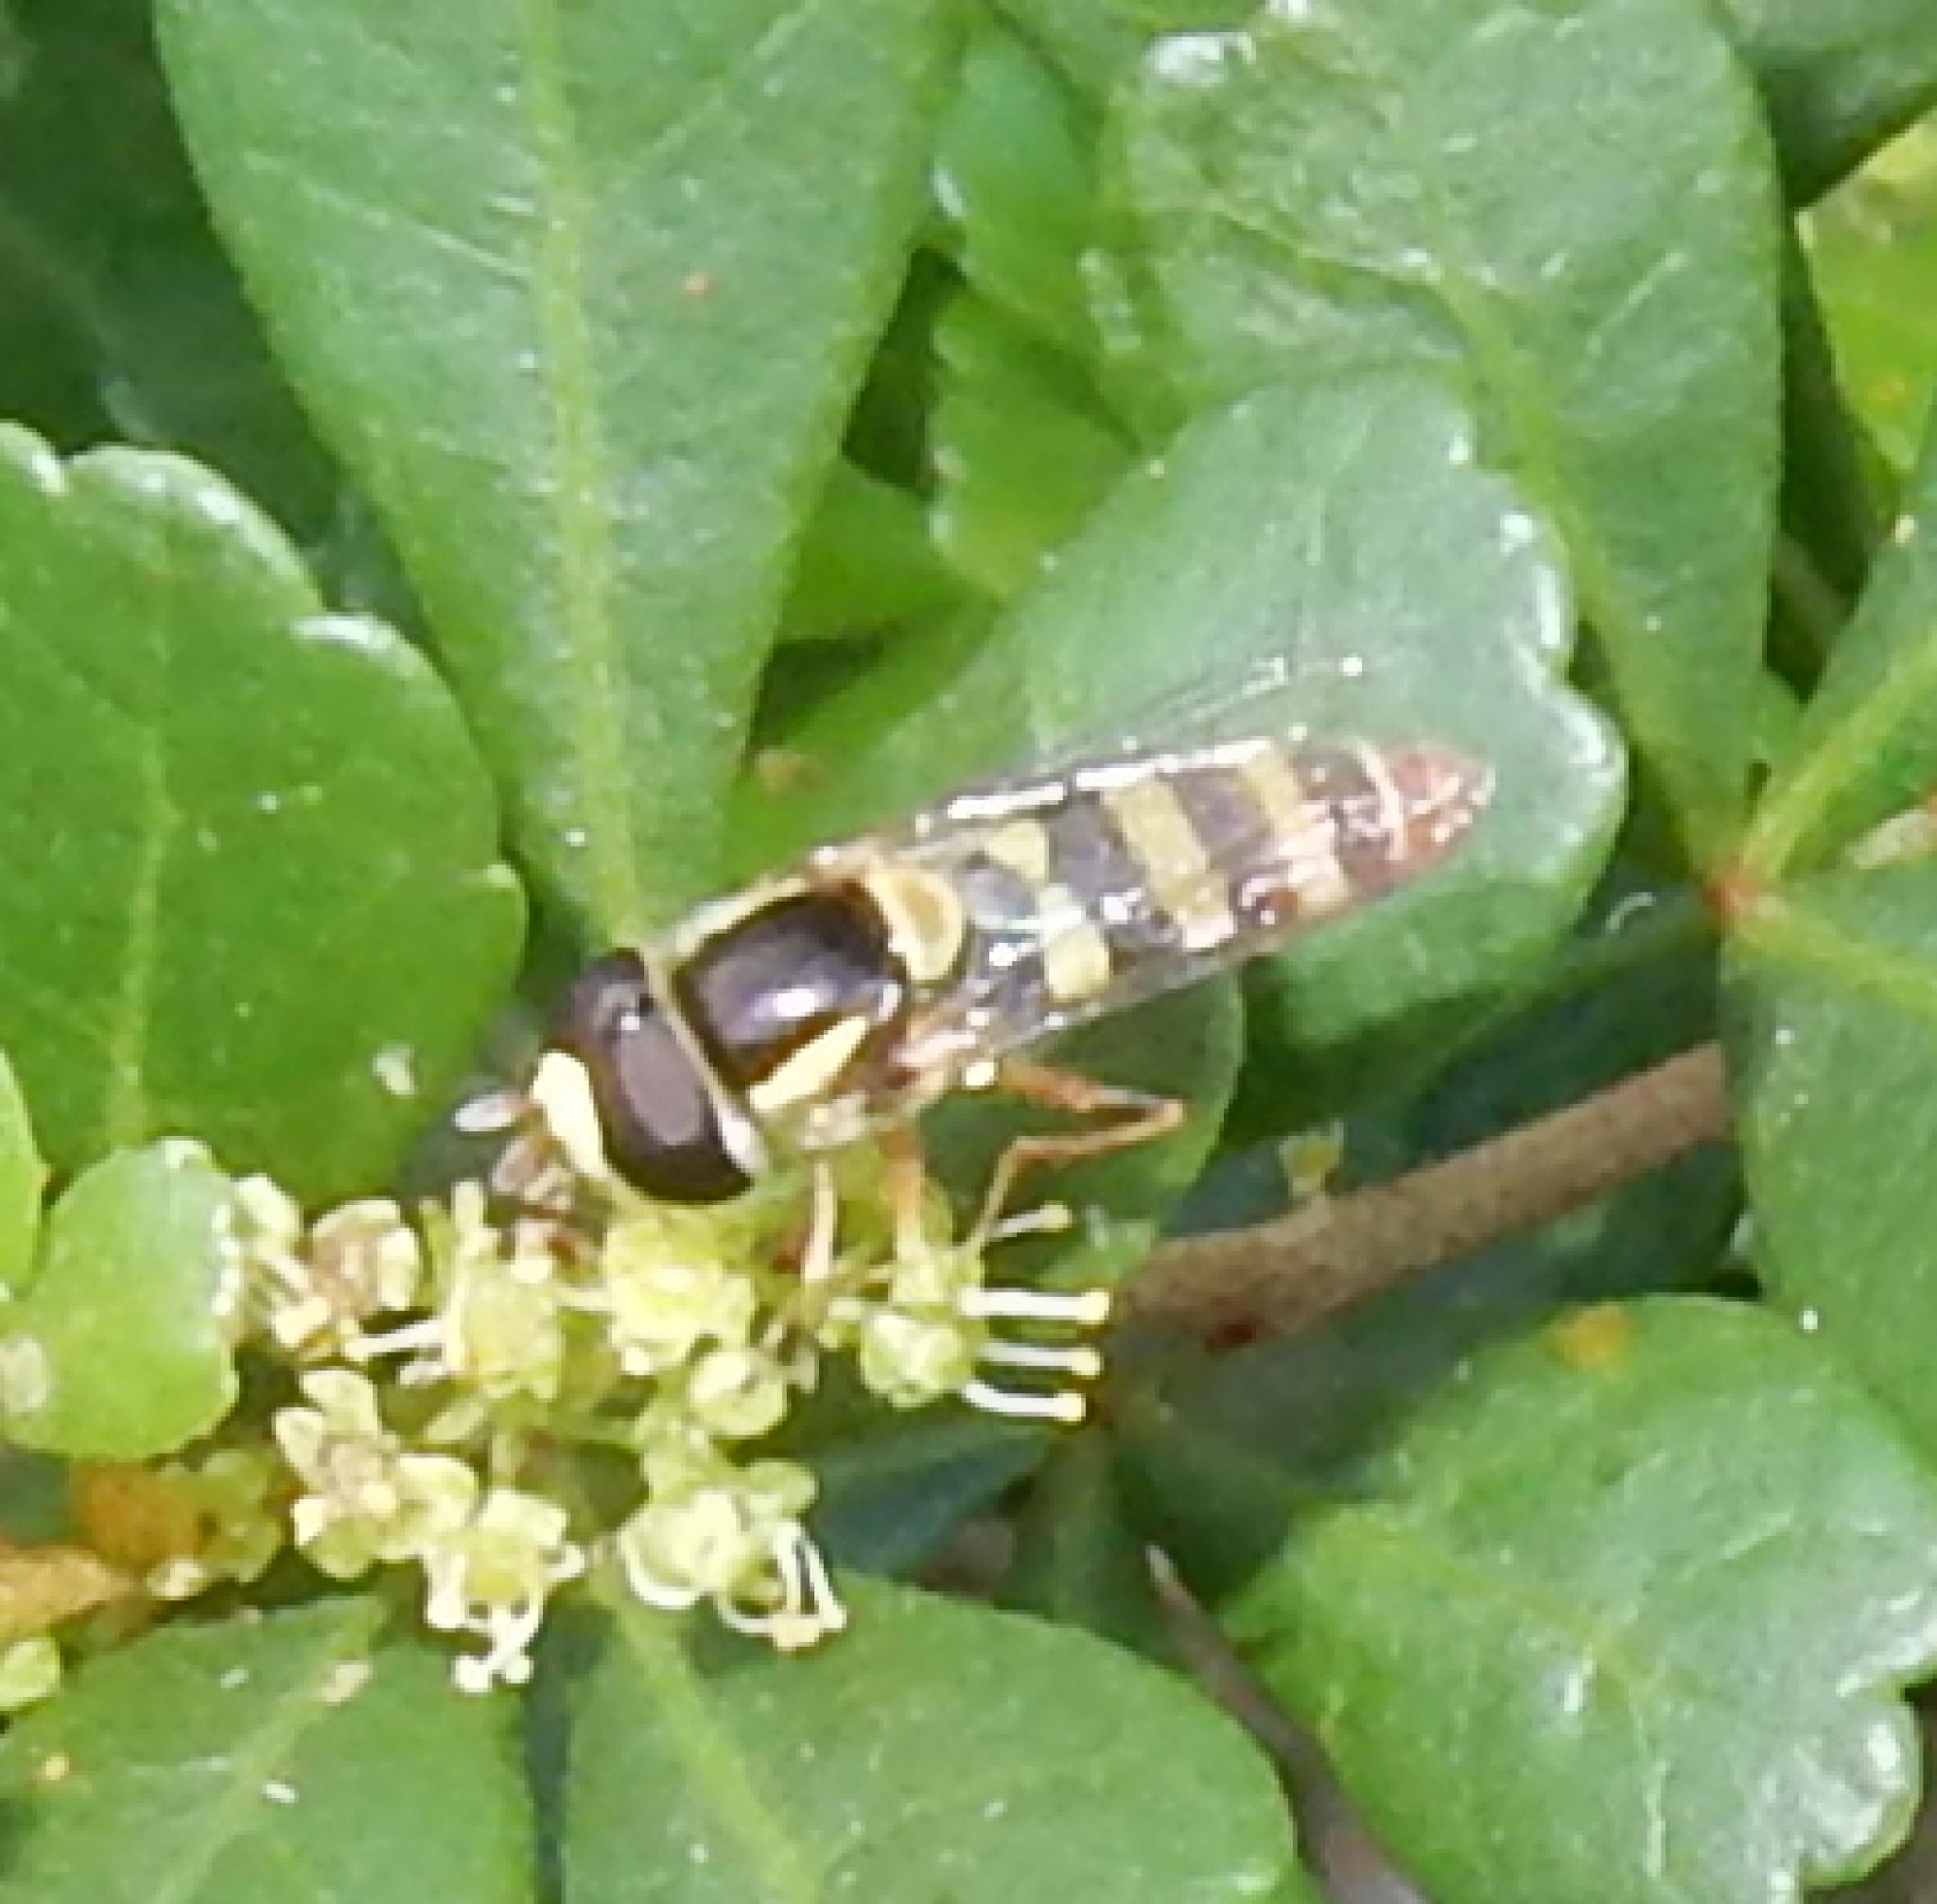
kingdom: Animalia
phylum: Arthropoda
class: Insecta
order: Diptera
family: Syrphidae
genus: Ischiodon
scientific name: Ischiodon aegyptius
